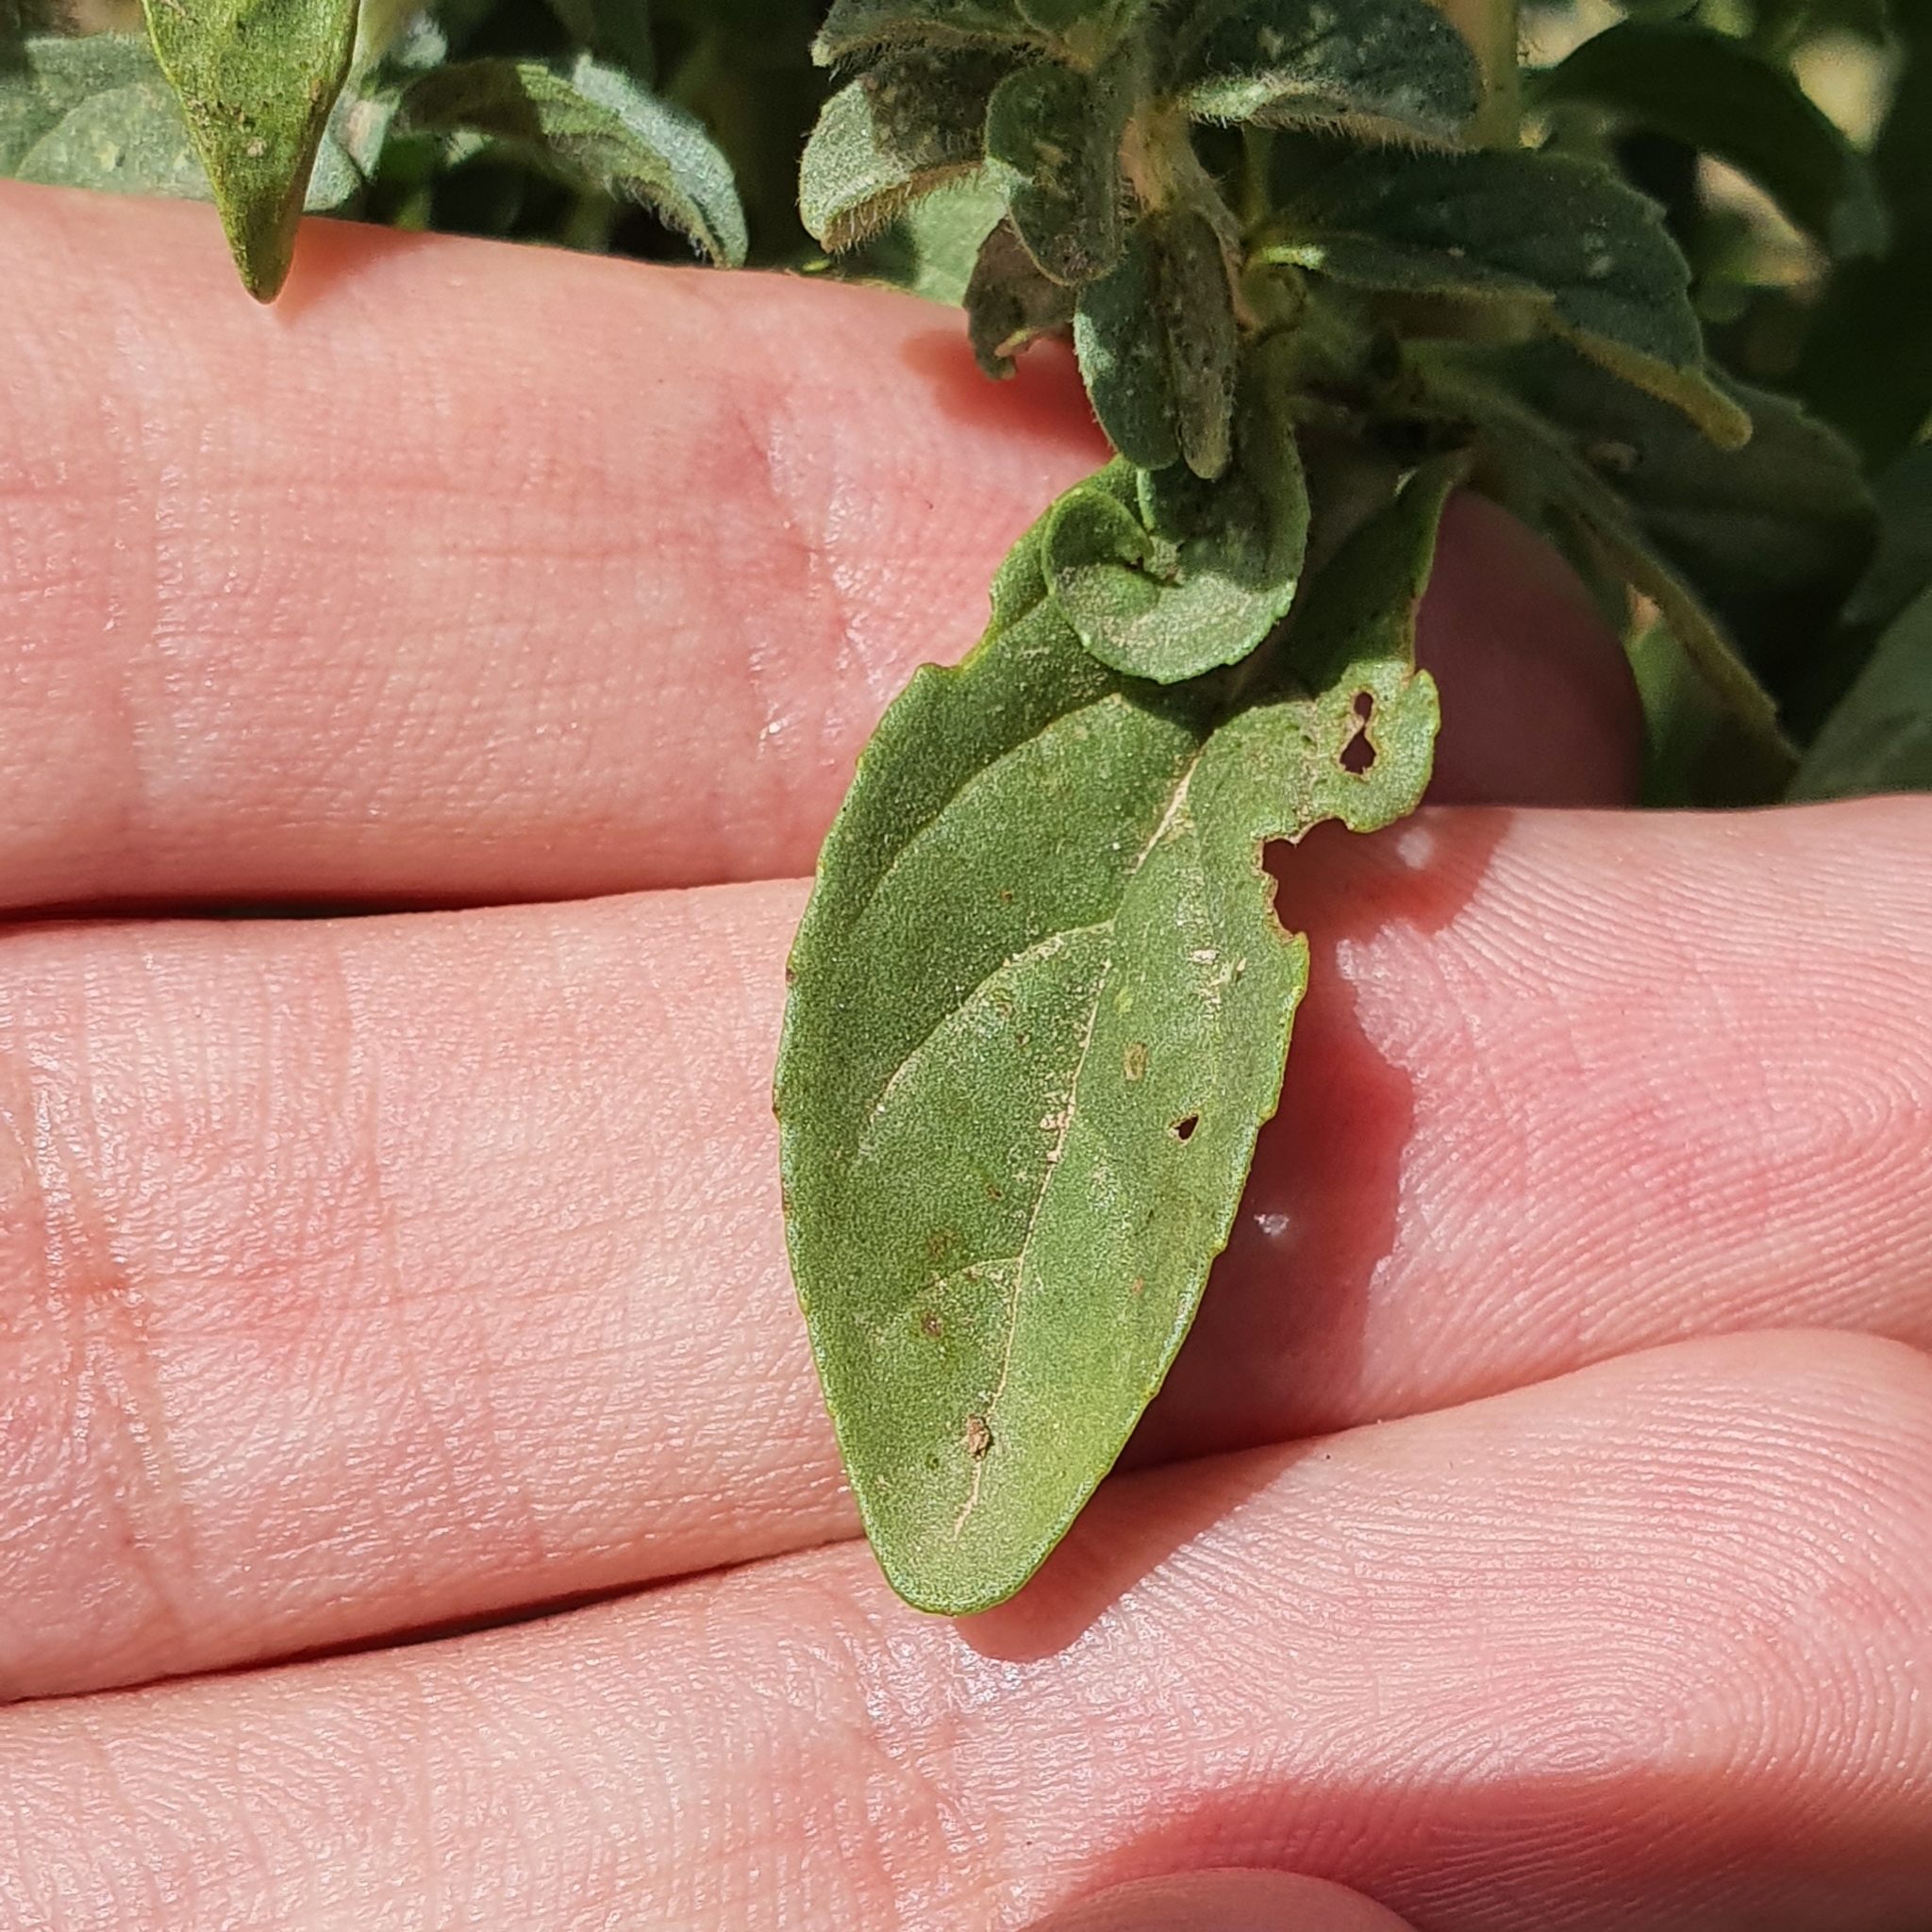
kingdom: Plantae
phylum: Tracheophyta
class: Magnoliopsida
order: Lamiales
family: Lamiaceae
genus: Mentha
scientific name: Mentha pulegium
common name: Pennyroyal
